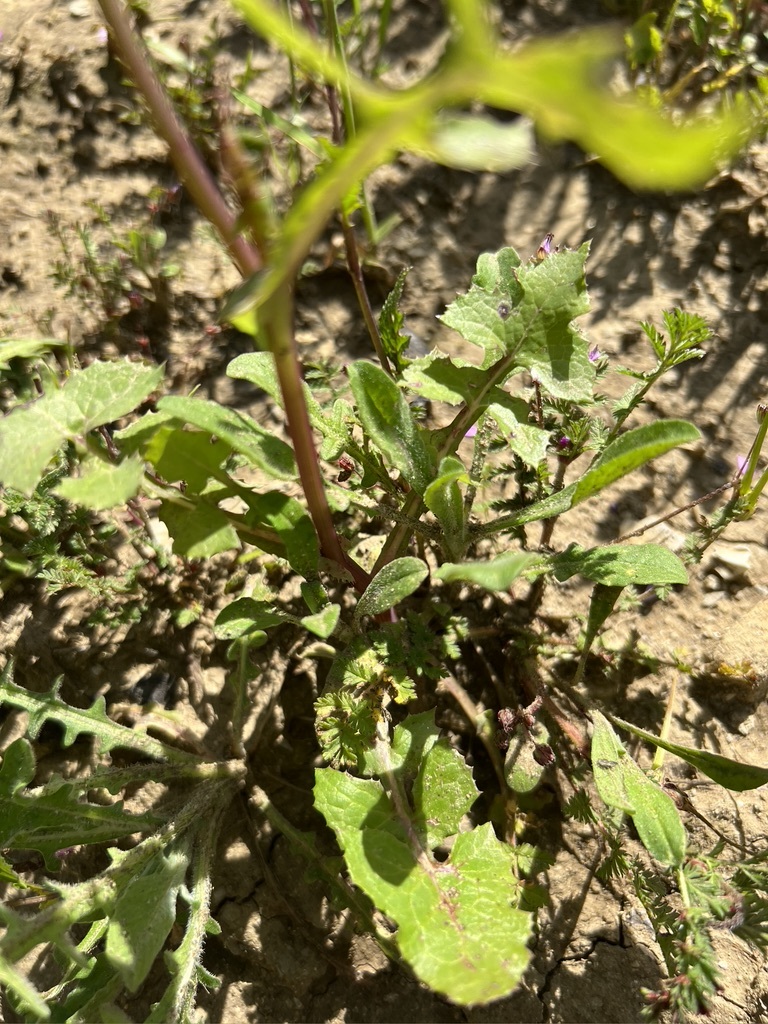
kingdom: Plantae
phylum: Tracheophyta
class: Magnoliopsida
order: Asterales
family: Asteraceae
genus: Sonchus
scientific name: Sonchus oleraceus
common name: Common sowthistle
